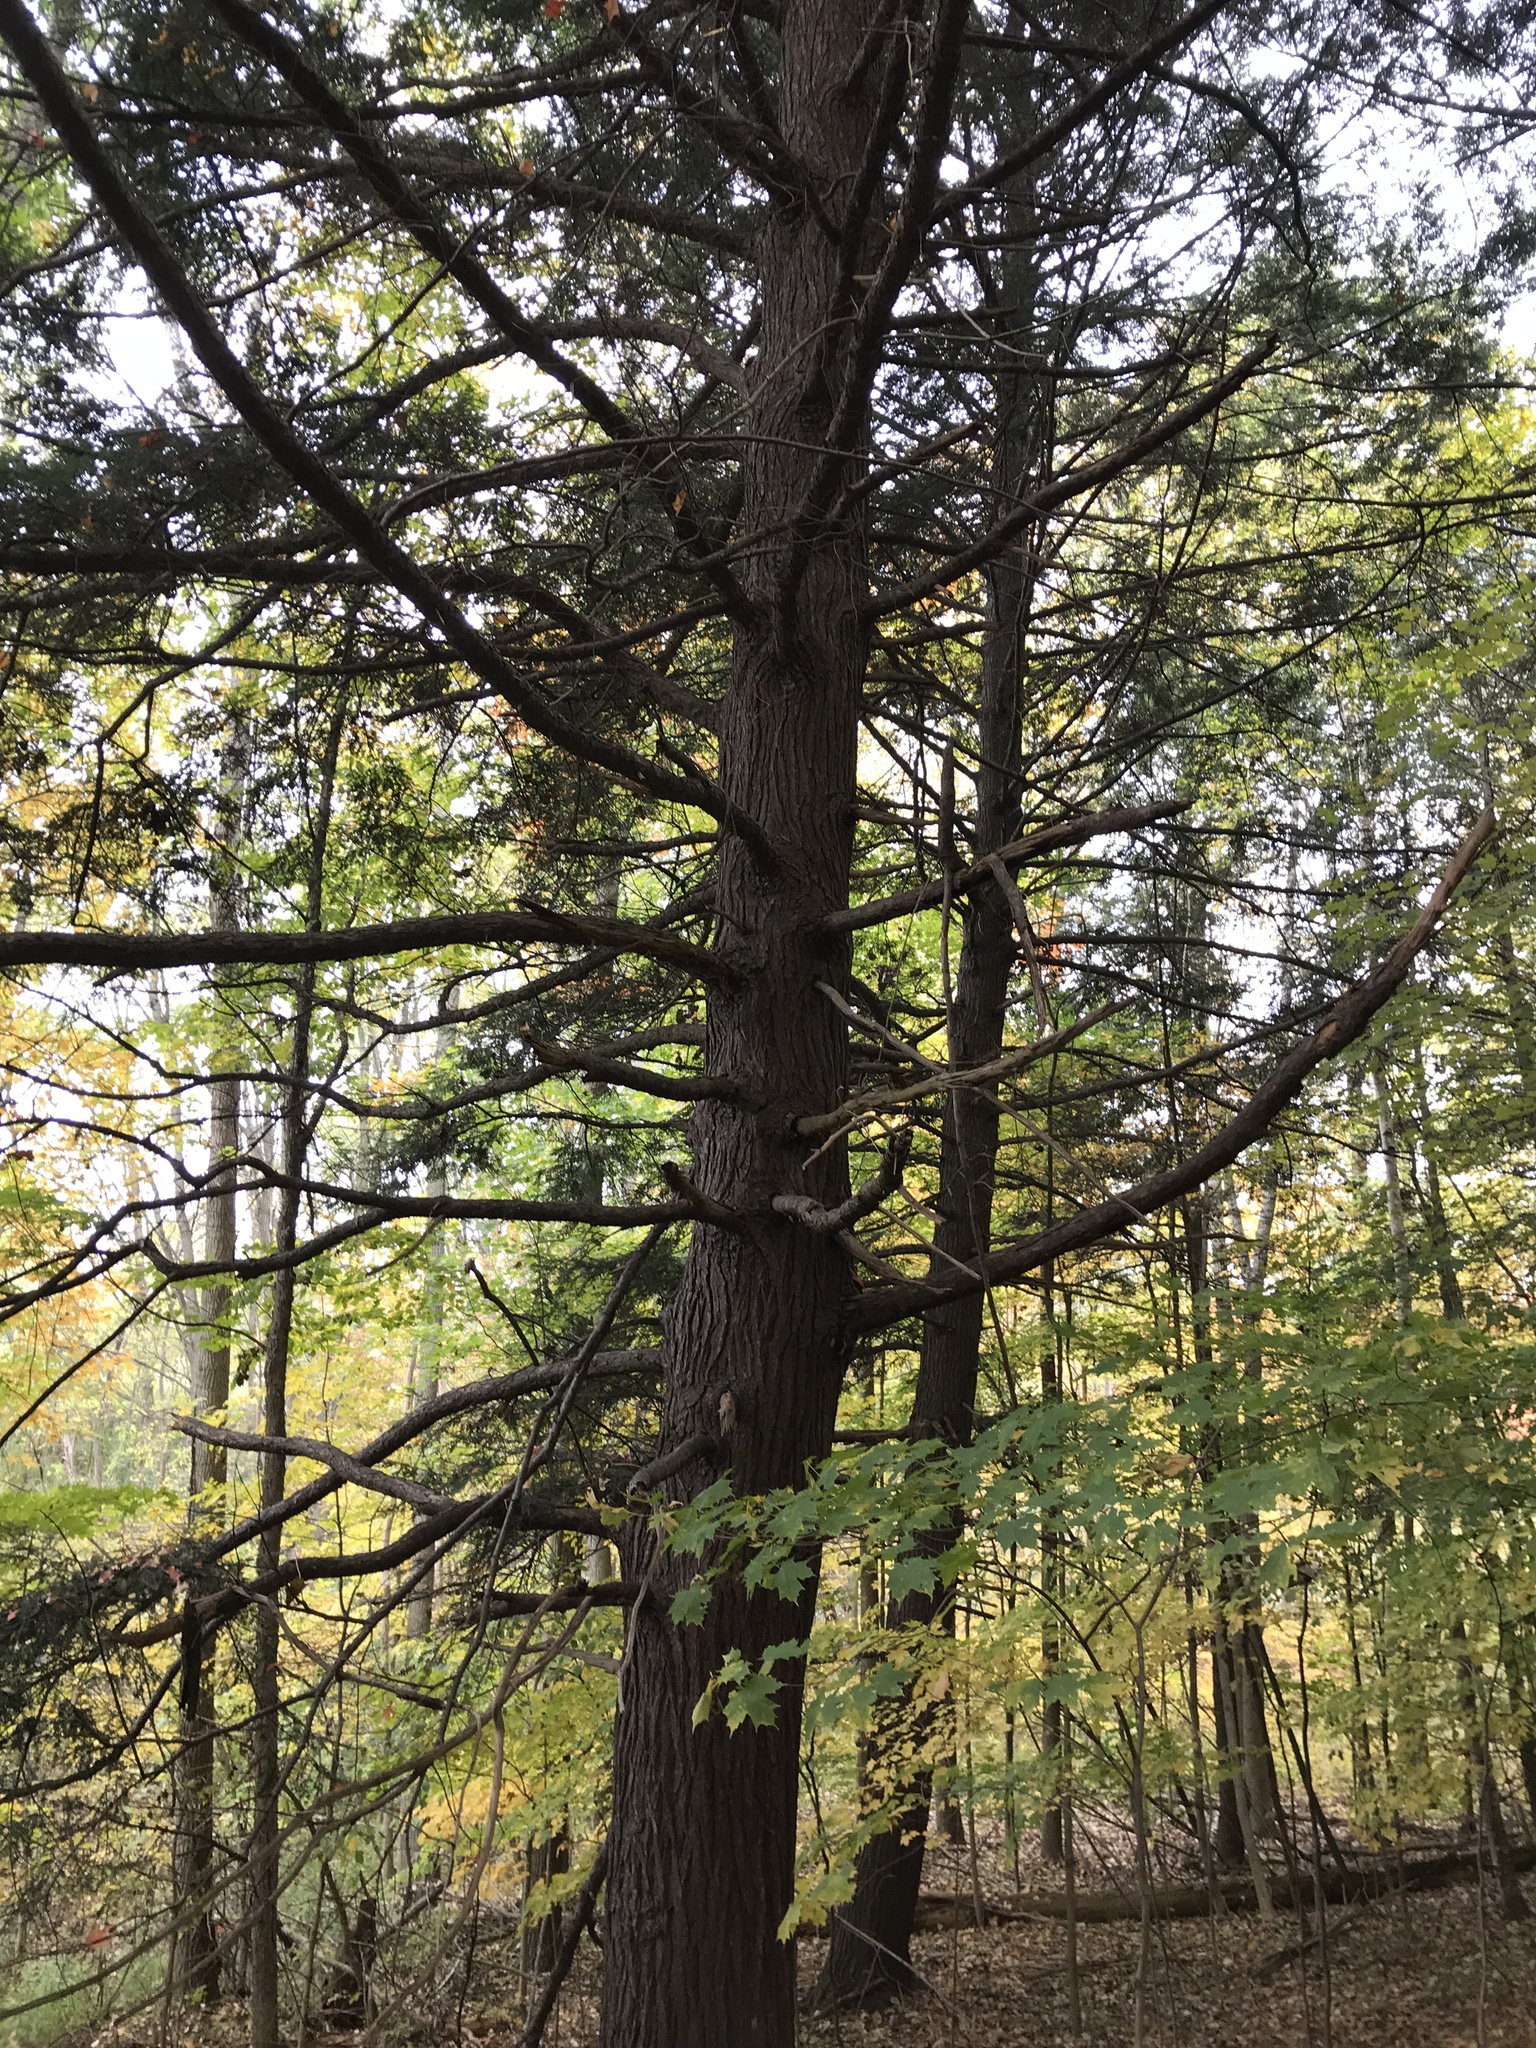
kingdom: Plantae
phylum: Tracheophyta
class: Pinopsida
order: Pinales
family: Pinaceae
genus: Tsuga
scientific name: Tsuga canadensis
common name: Eastern hemlock
